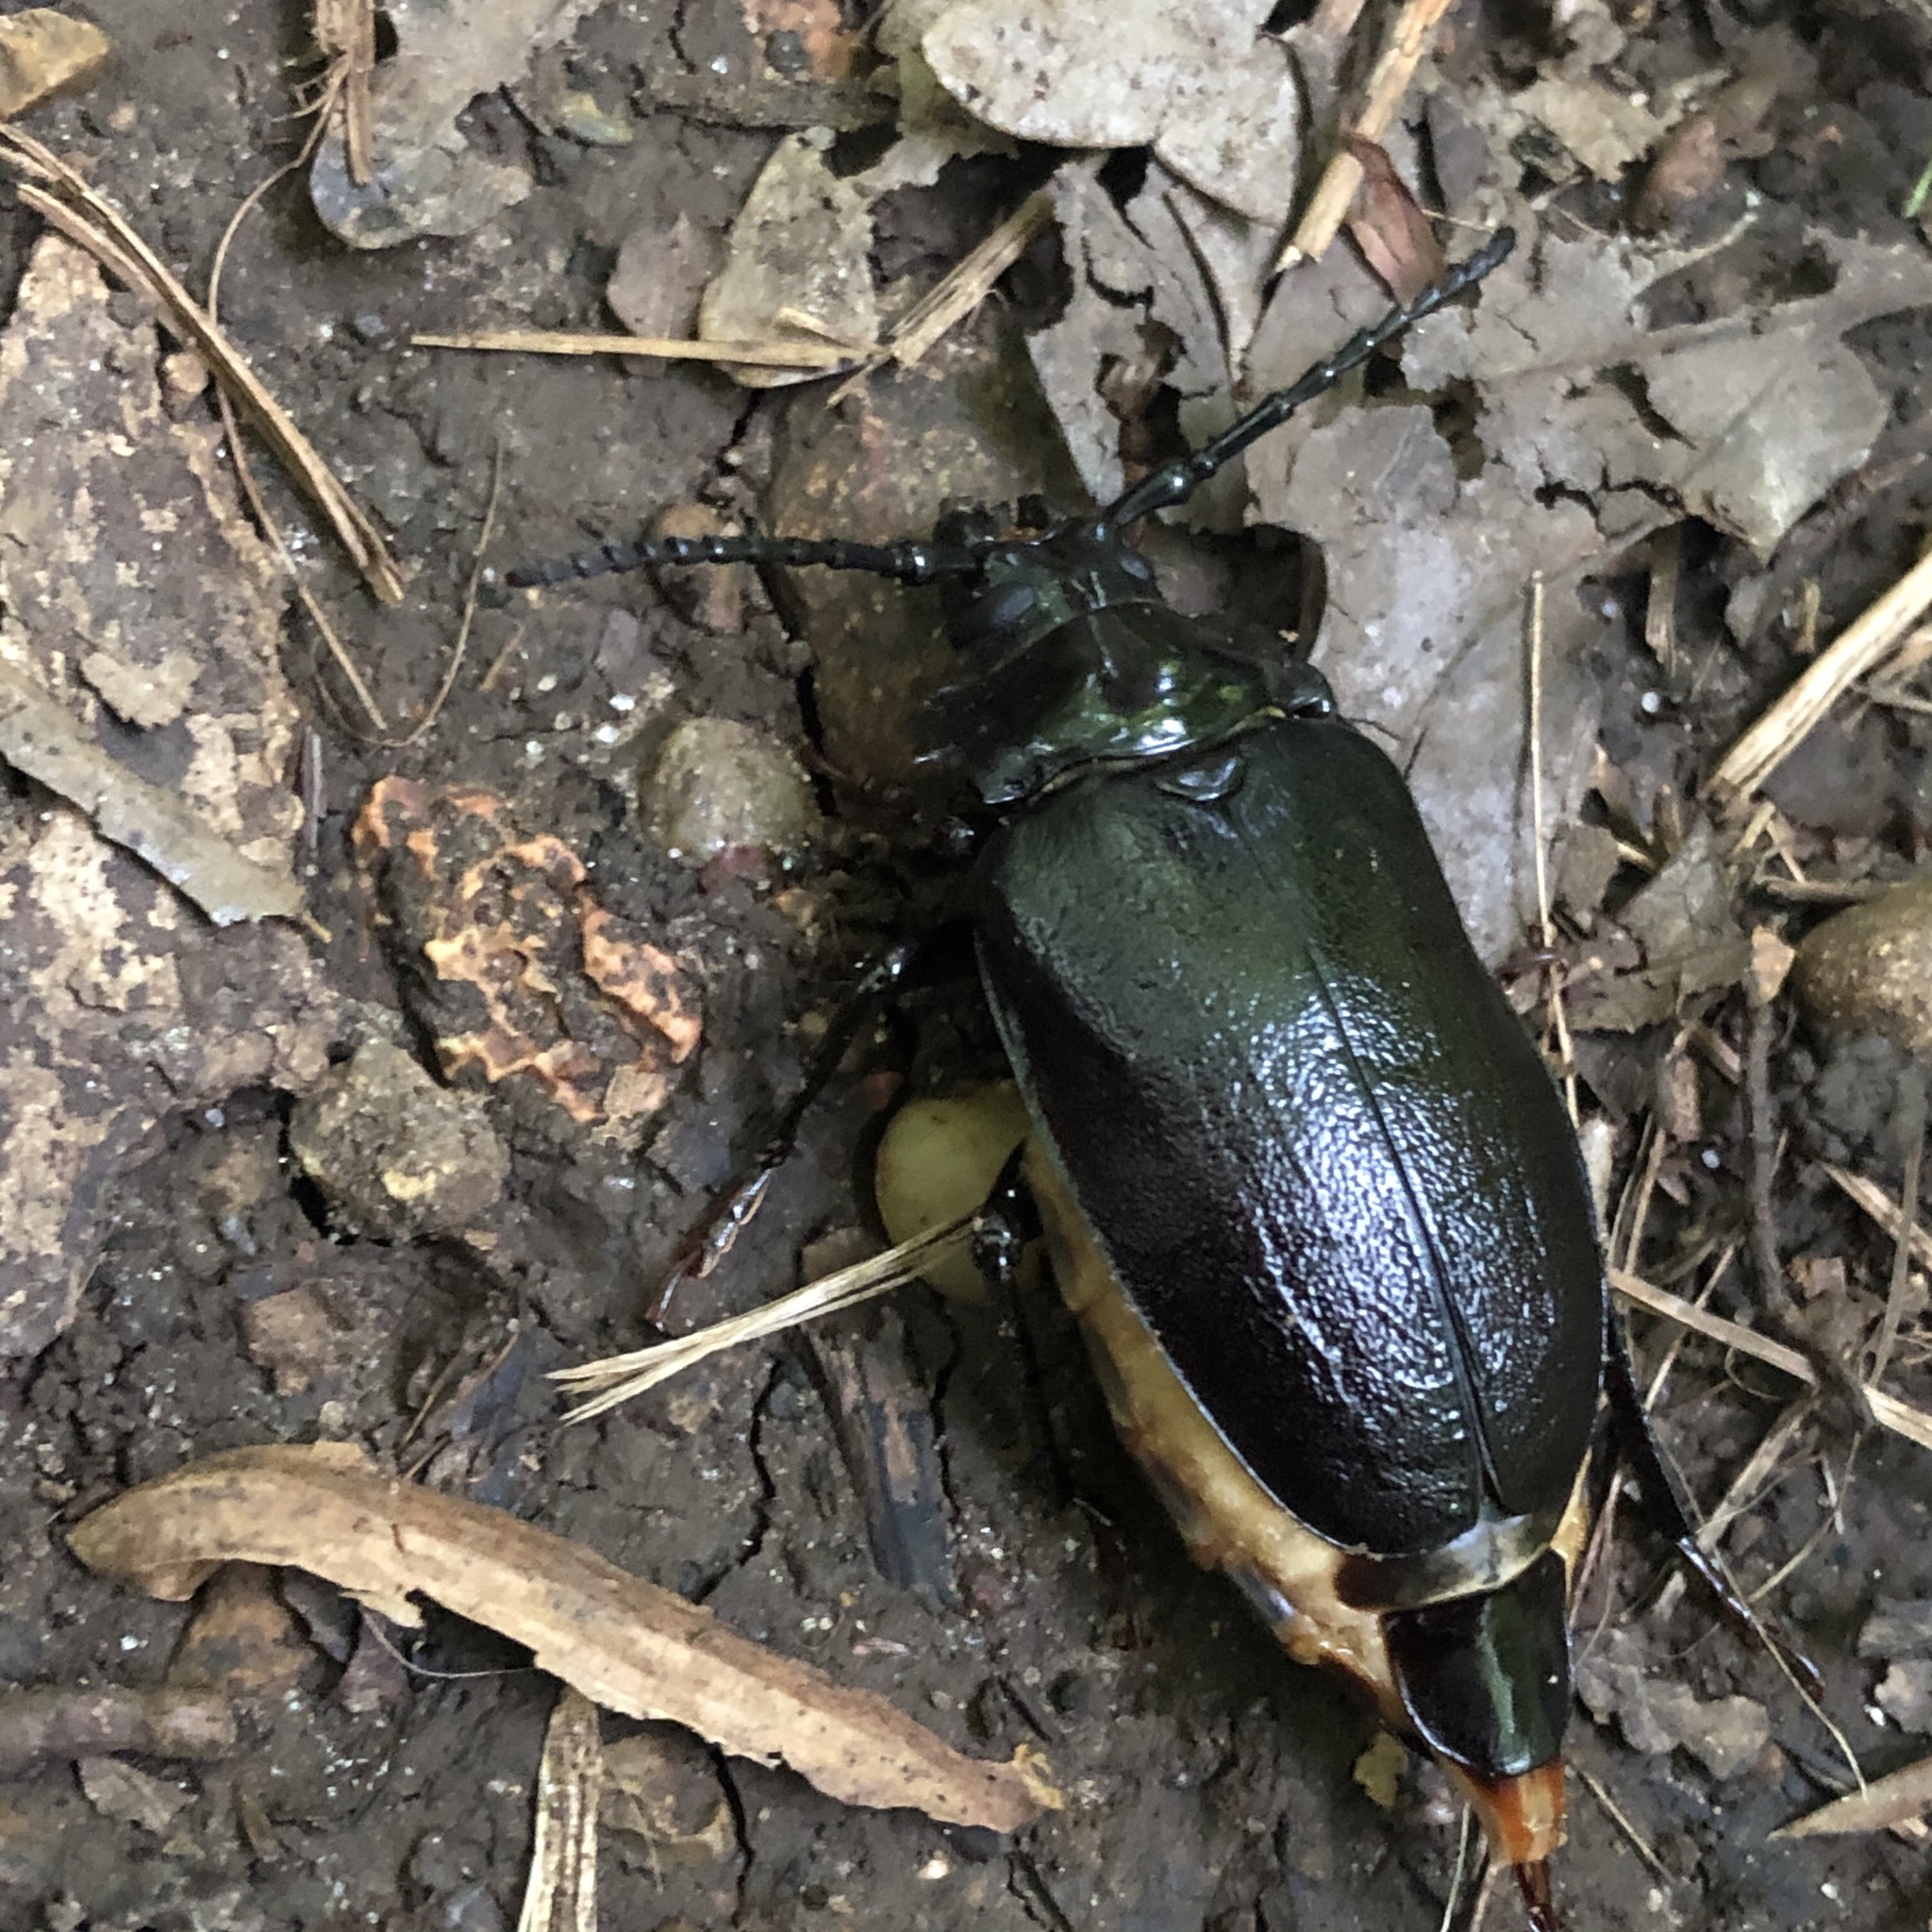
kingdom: Animalia
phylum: Arthropoda
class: Insecta
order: Coleoptera
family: Cerambycidae
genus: Prionus
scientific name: Prionus laticollis
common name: Broad necked prionus
